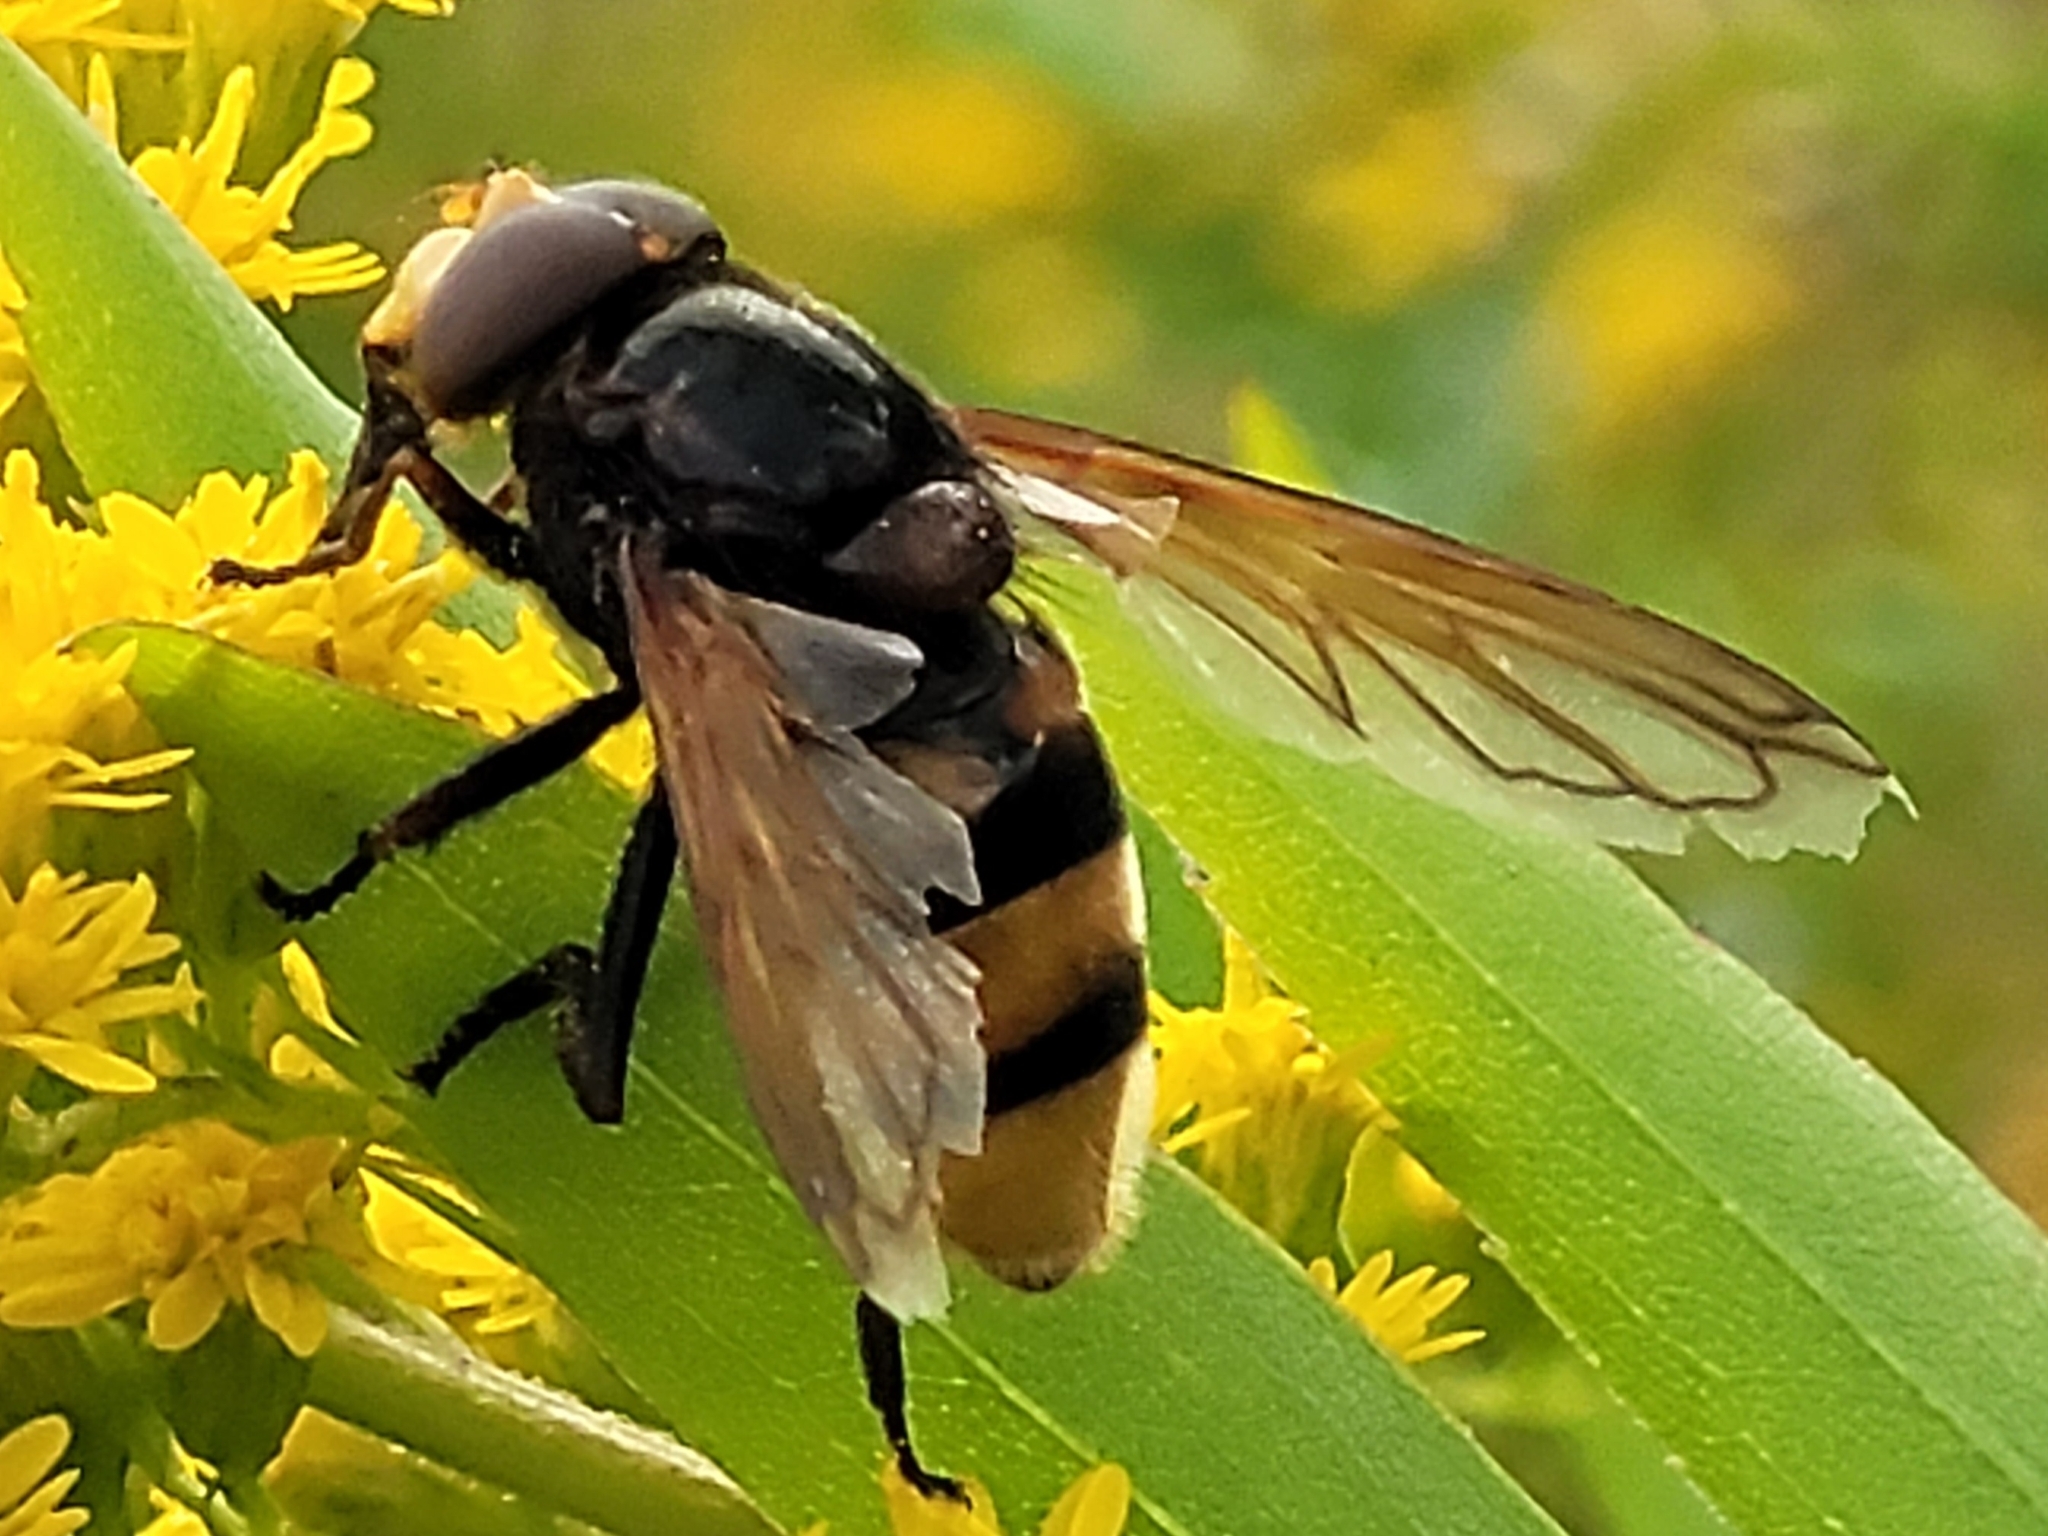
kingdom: Animalia
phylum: Arthropoda
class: Insecta
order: Diptera
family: Syrphidae
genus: Volucella
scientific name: Volucella zonaria
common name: Hornet hoverfly
